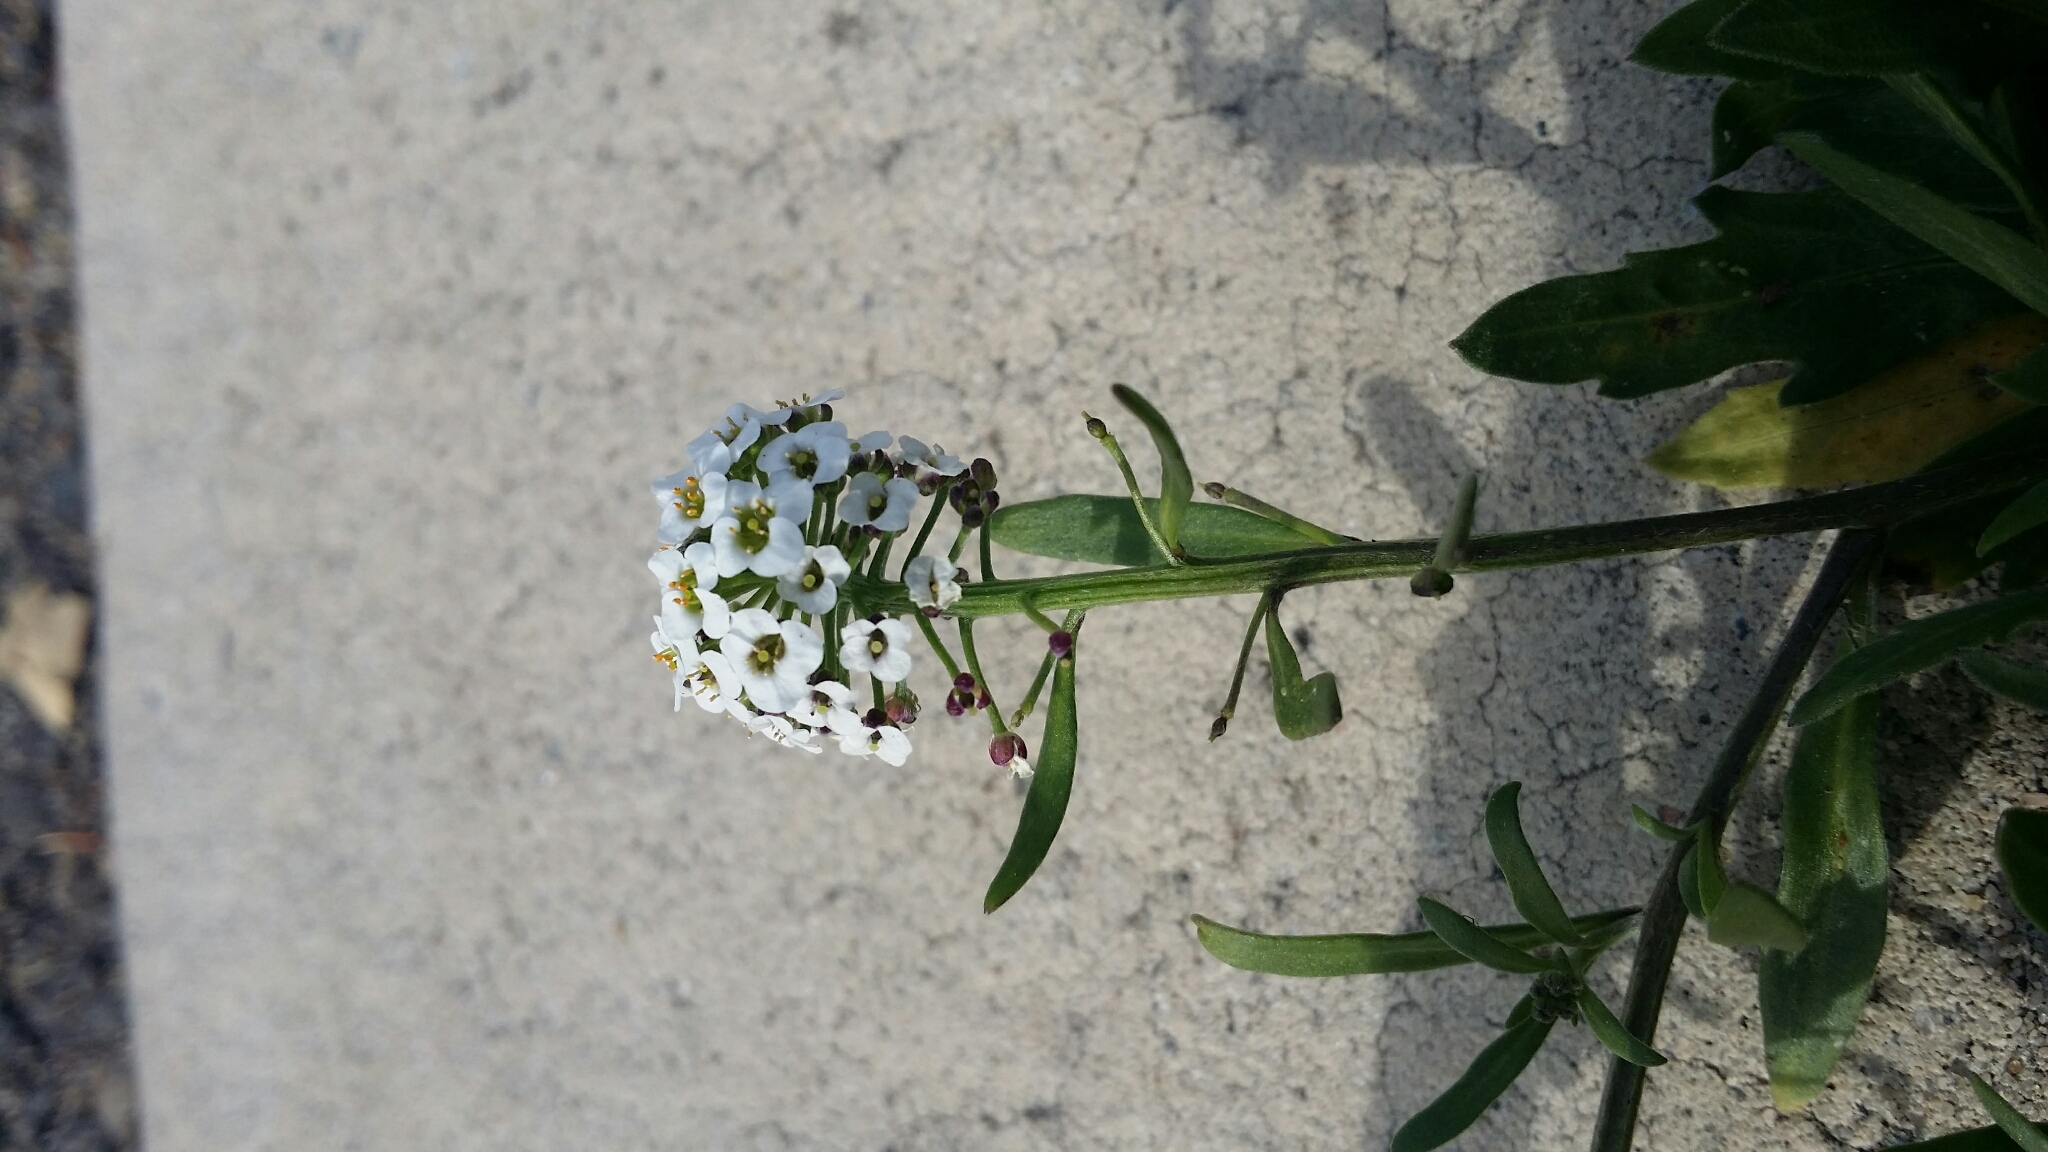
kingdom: Plantae
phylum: Tracheophyta
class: Magnoliopsida
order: Brassicales
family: Brassicaceae
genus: Lobularia
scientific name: Lobularia maritima
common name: Sweet alison
